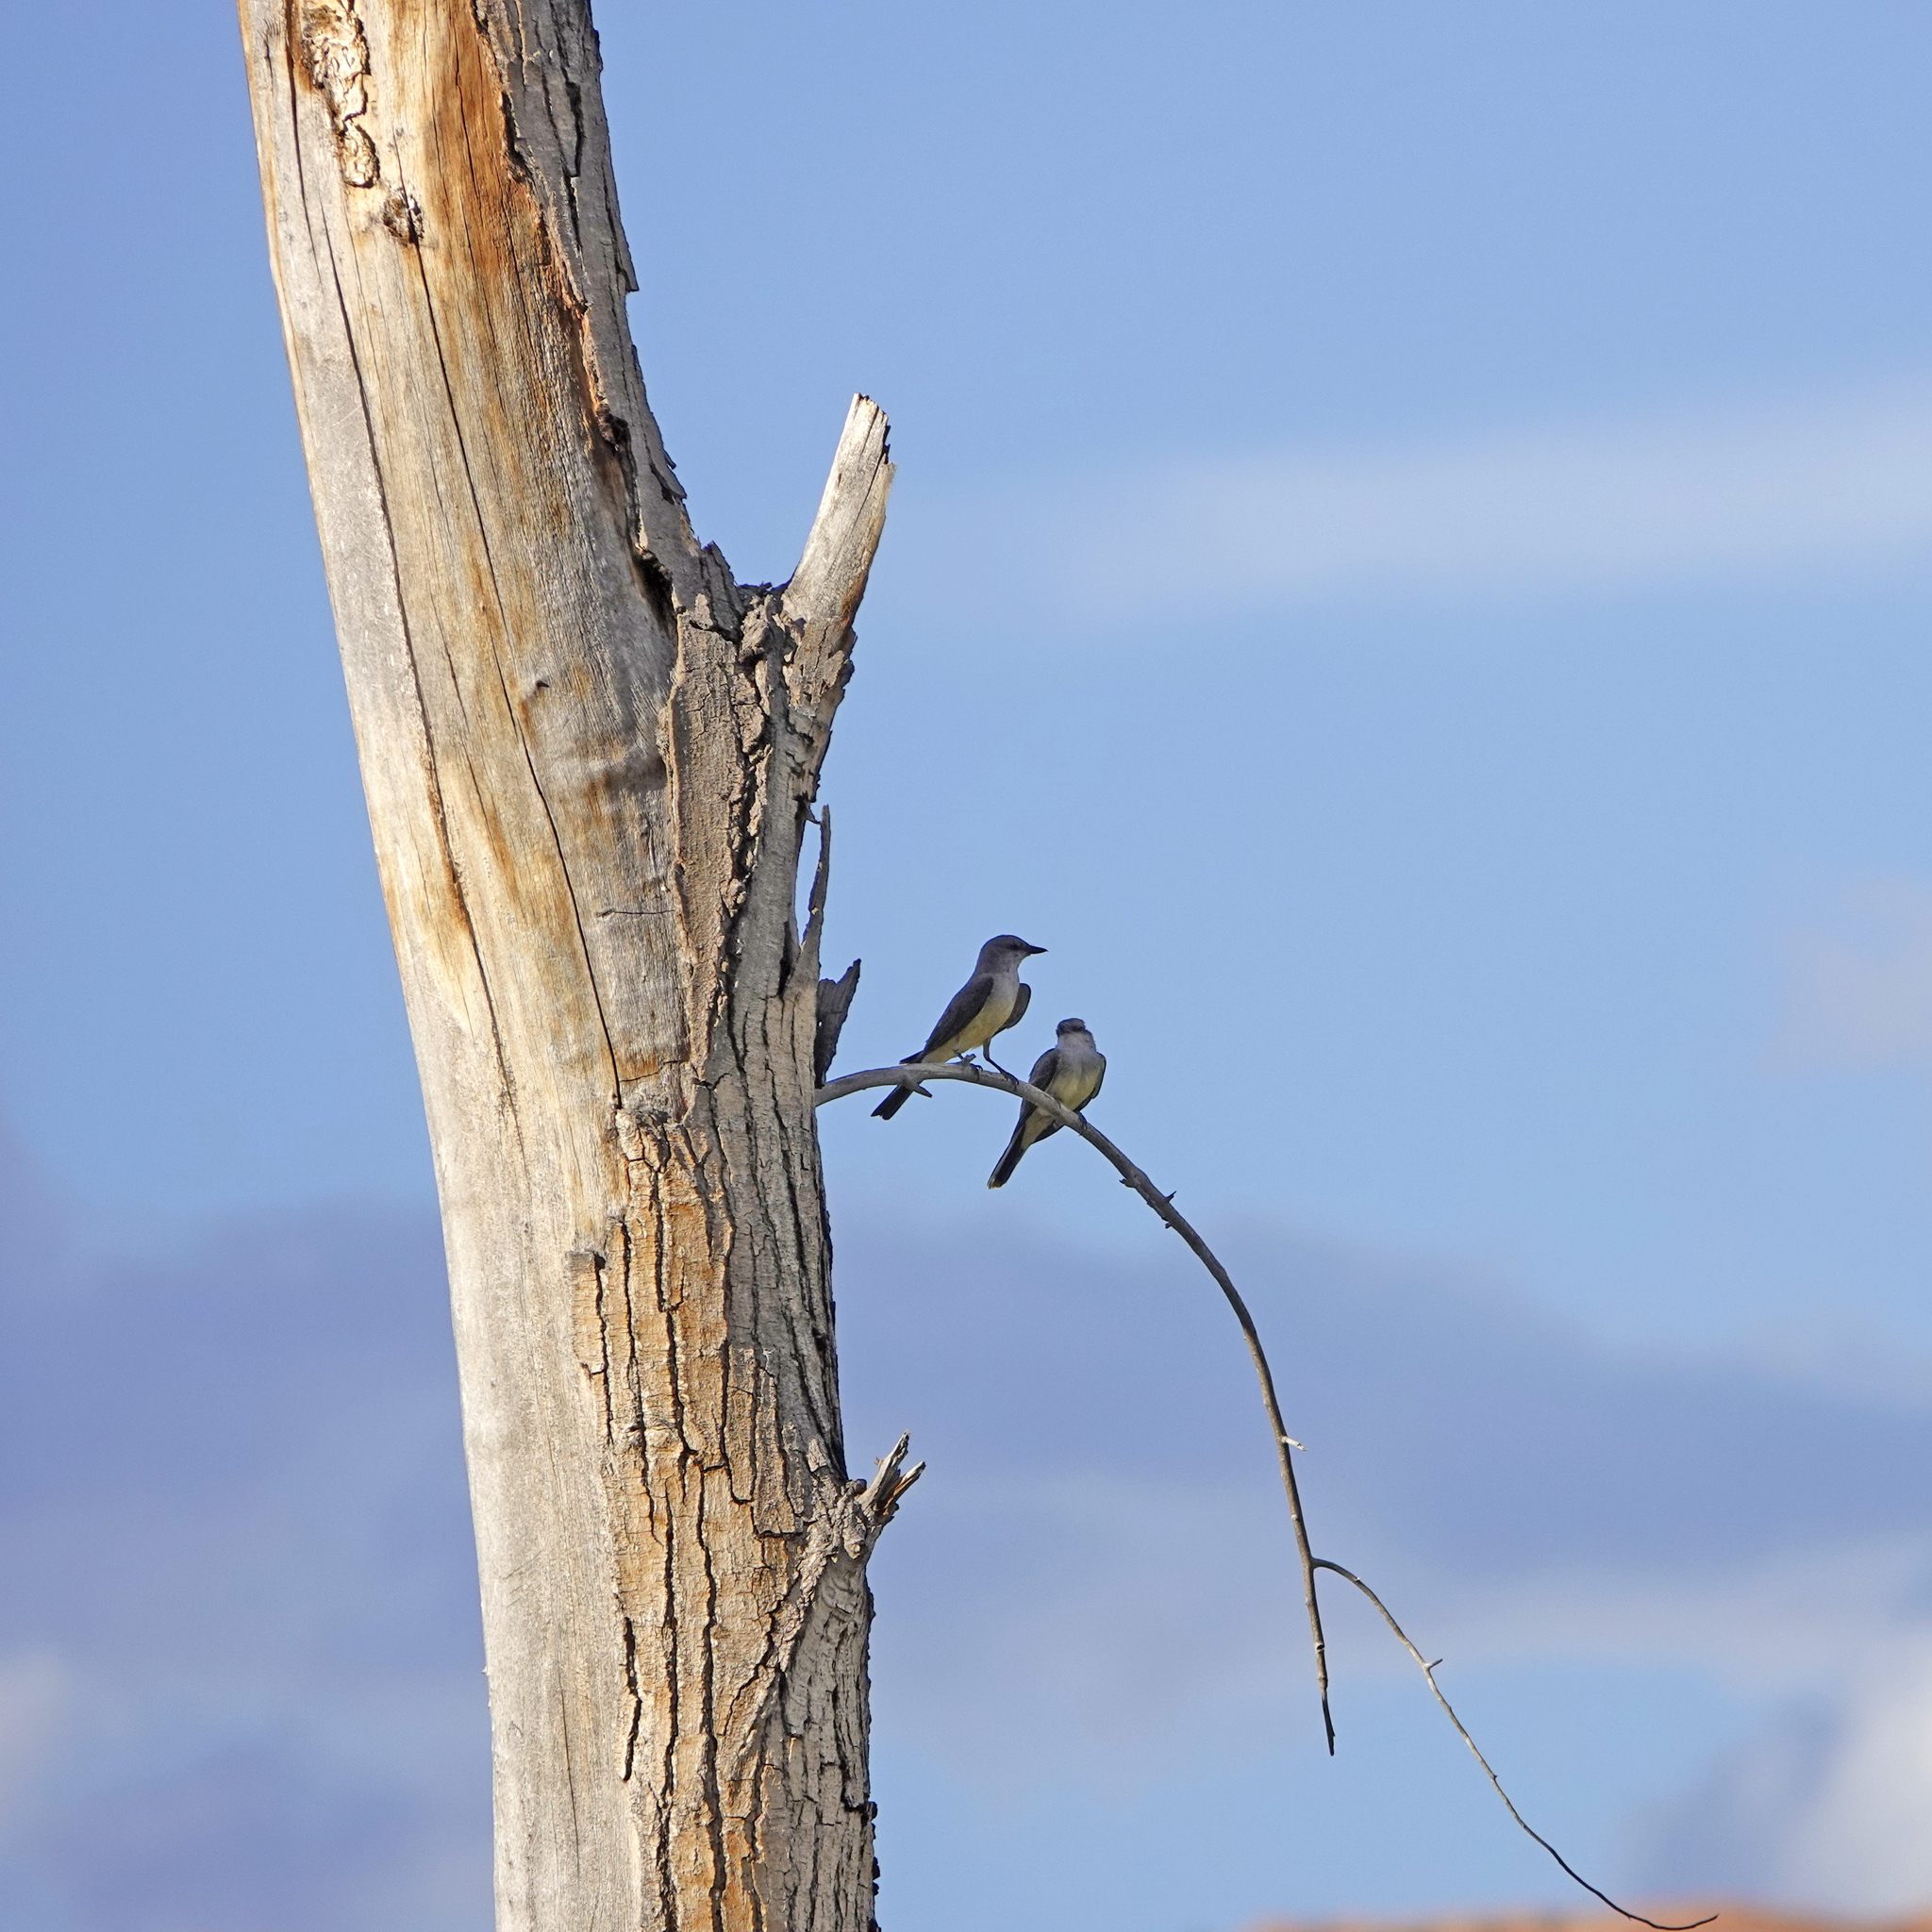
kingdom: Animalia
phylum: Chordata
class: Aves
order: Passeriformes
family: Tyrannidae
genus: Tyrannus
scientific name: Tyrannus verticalis
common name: Western kingbird
